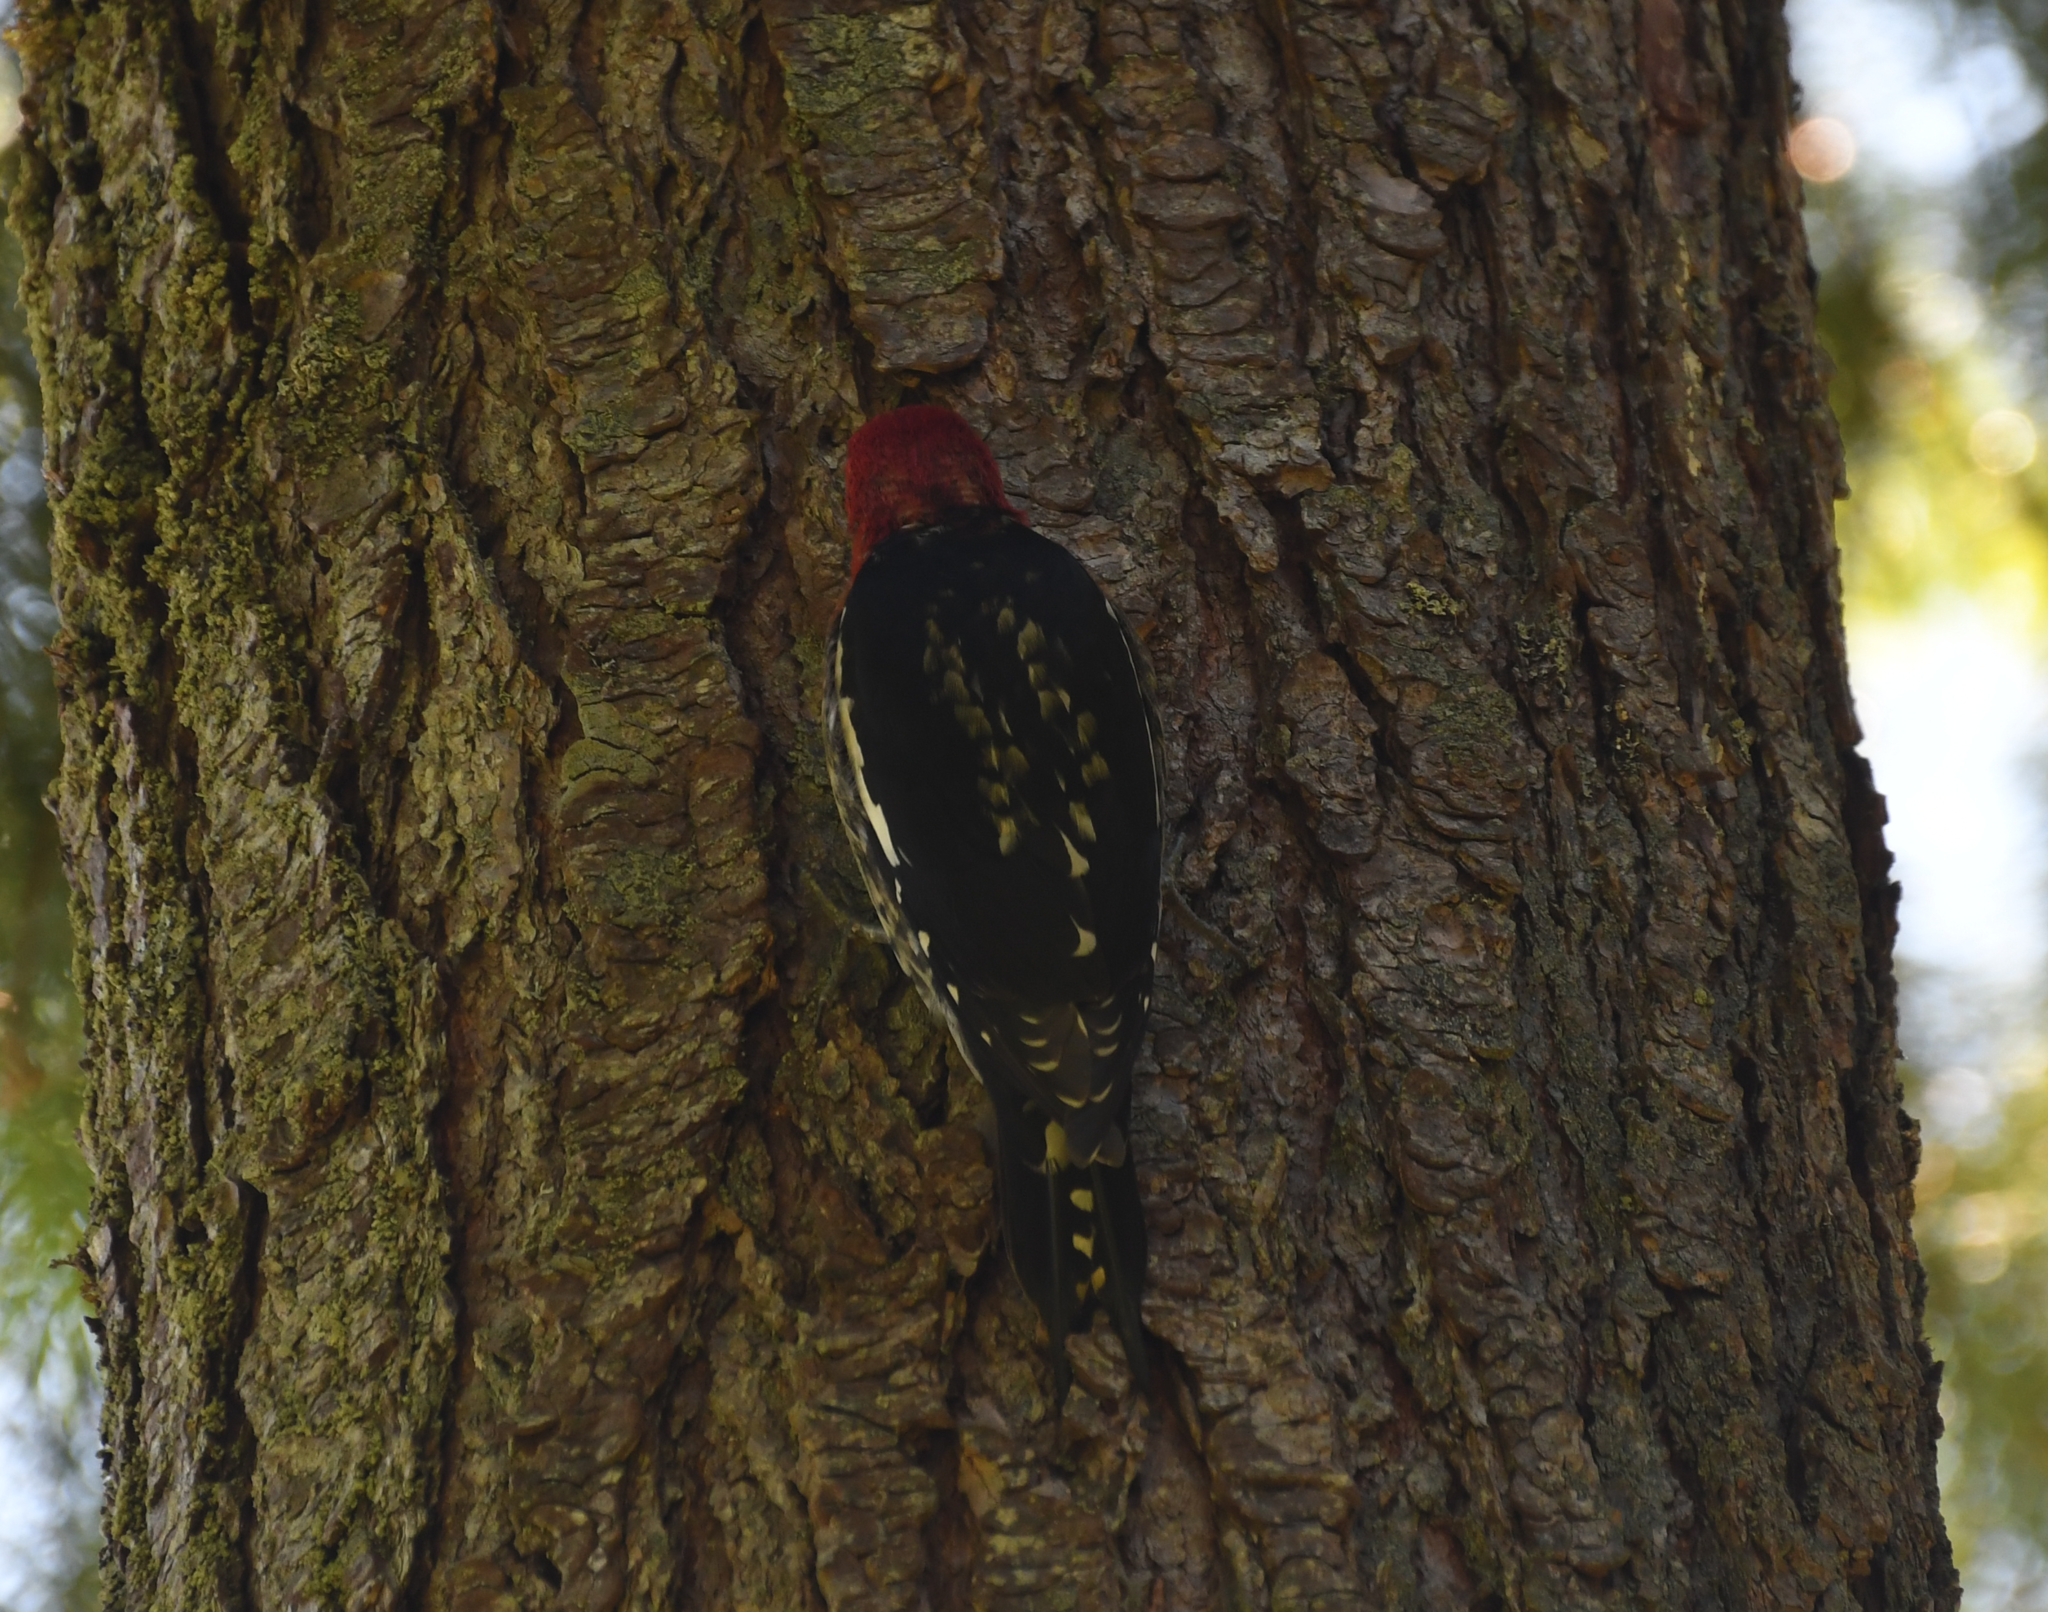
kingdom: Animalia
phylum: Chordata
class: Aves
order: Piciformes
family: Picidae
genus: Sphyrapicus
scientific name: Sphyrapicus ruber
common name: Red-breasted sapsucker
